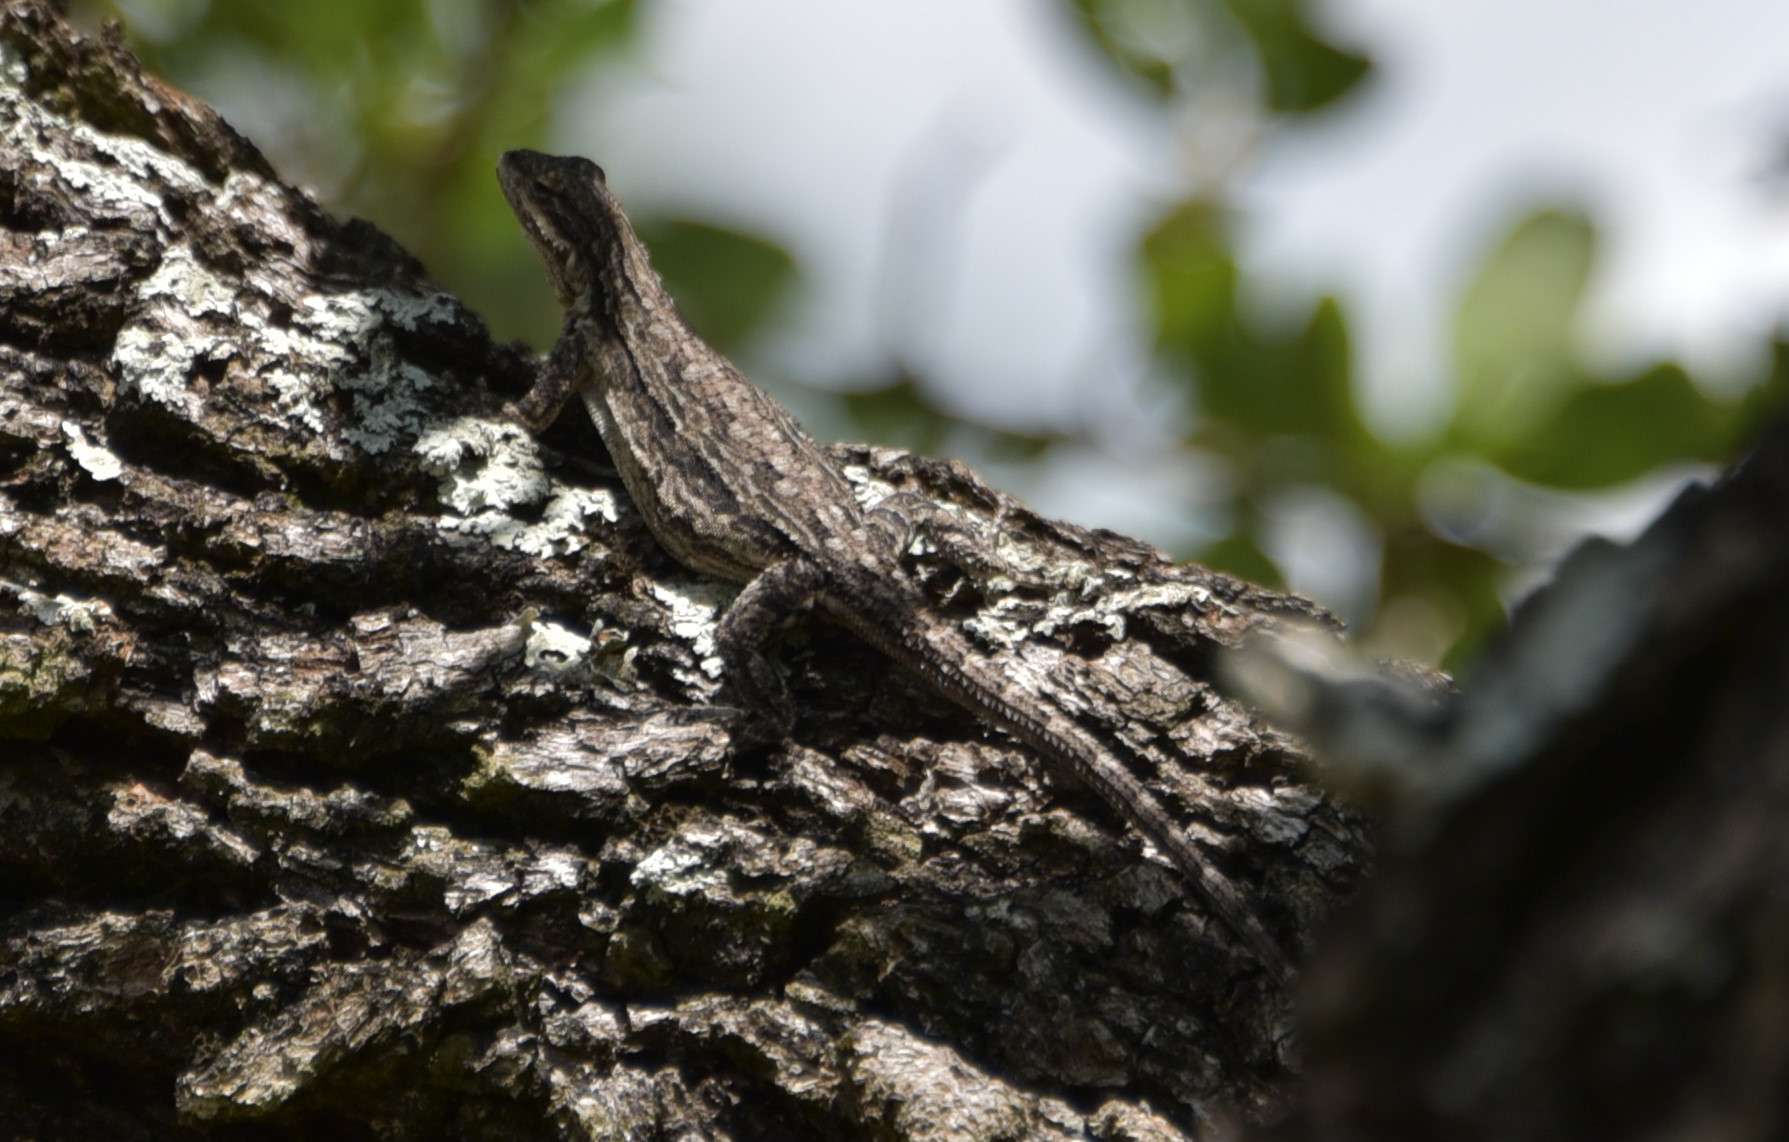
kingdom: Animalia
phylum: Chordata
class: Squamata
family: Phrynosomatidae
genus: Urosaurus
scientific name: Urosaurus ornatus
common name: Ornate tree lizard
